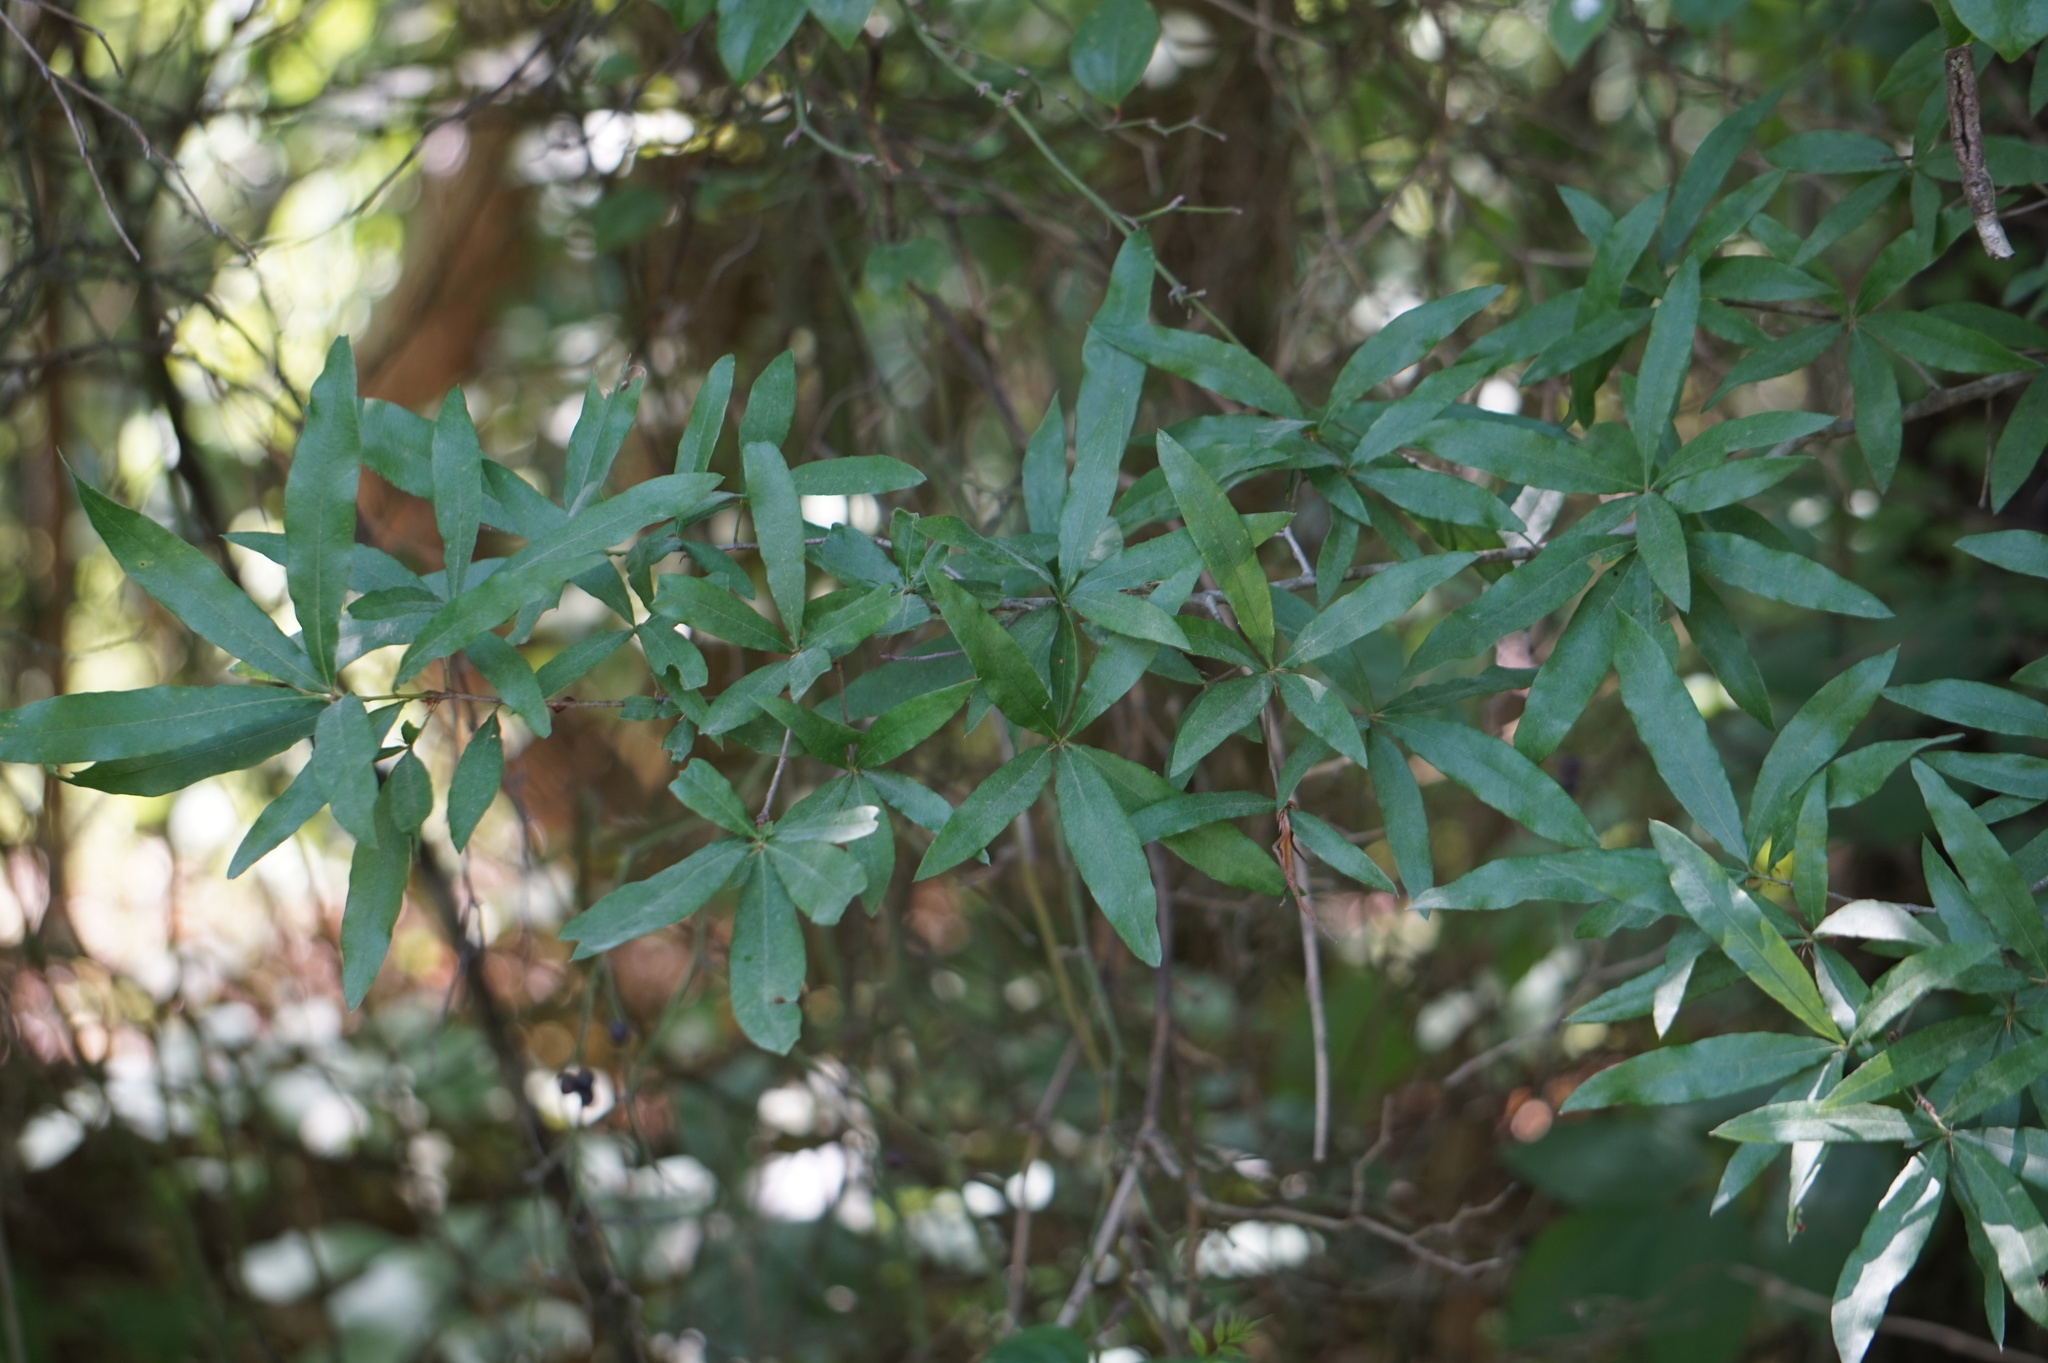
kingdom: Plantae
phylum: Tracheophyta
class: Magnoliopsida
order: Fagales
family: Fagaceae
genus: Quercus
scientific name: Quercus phellos
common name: Willow oak
